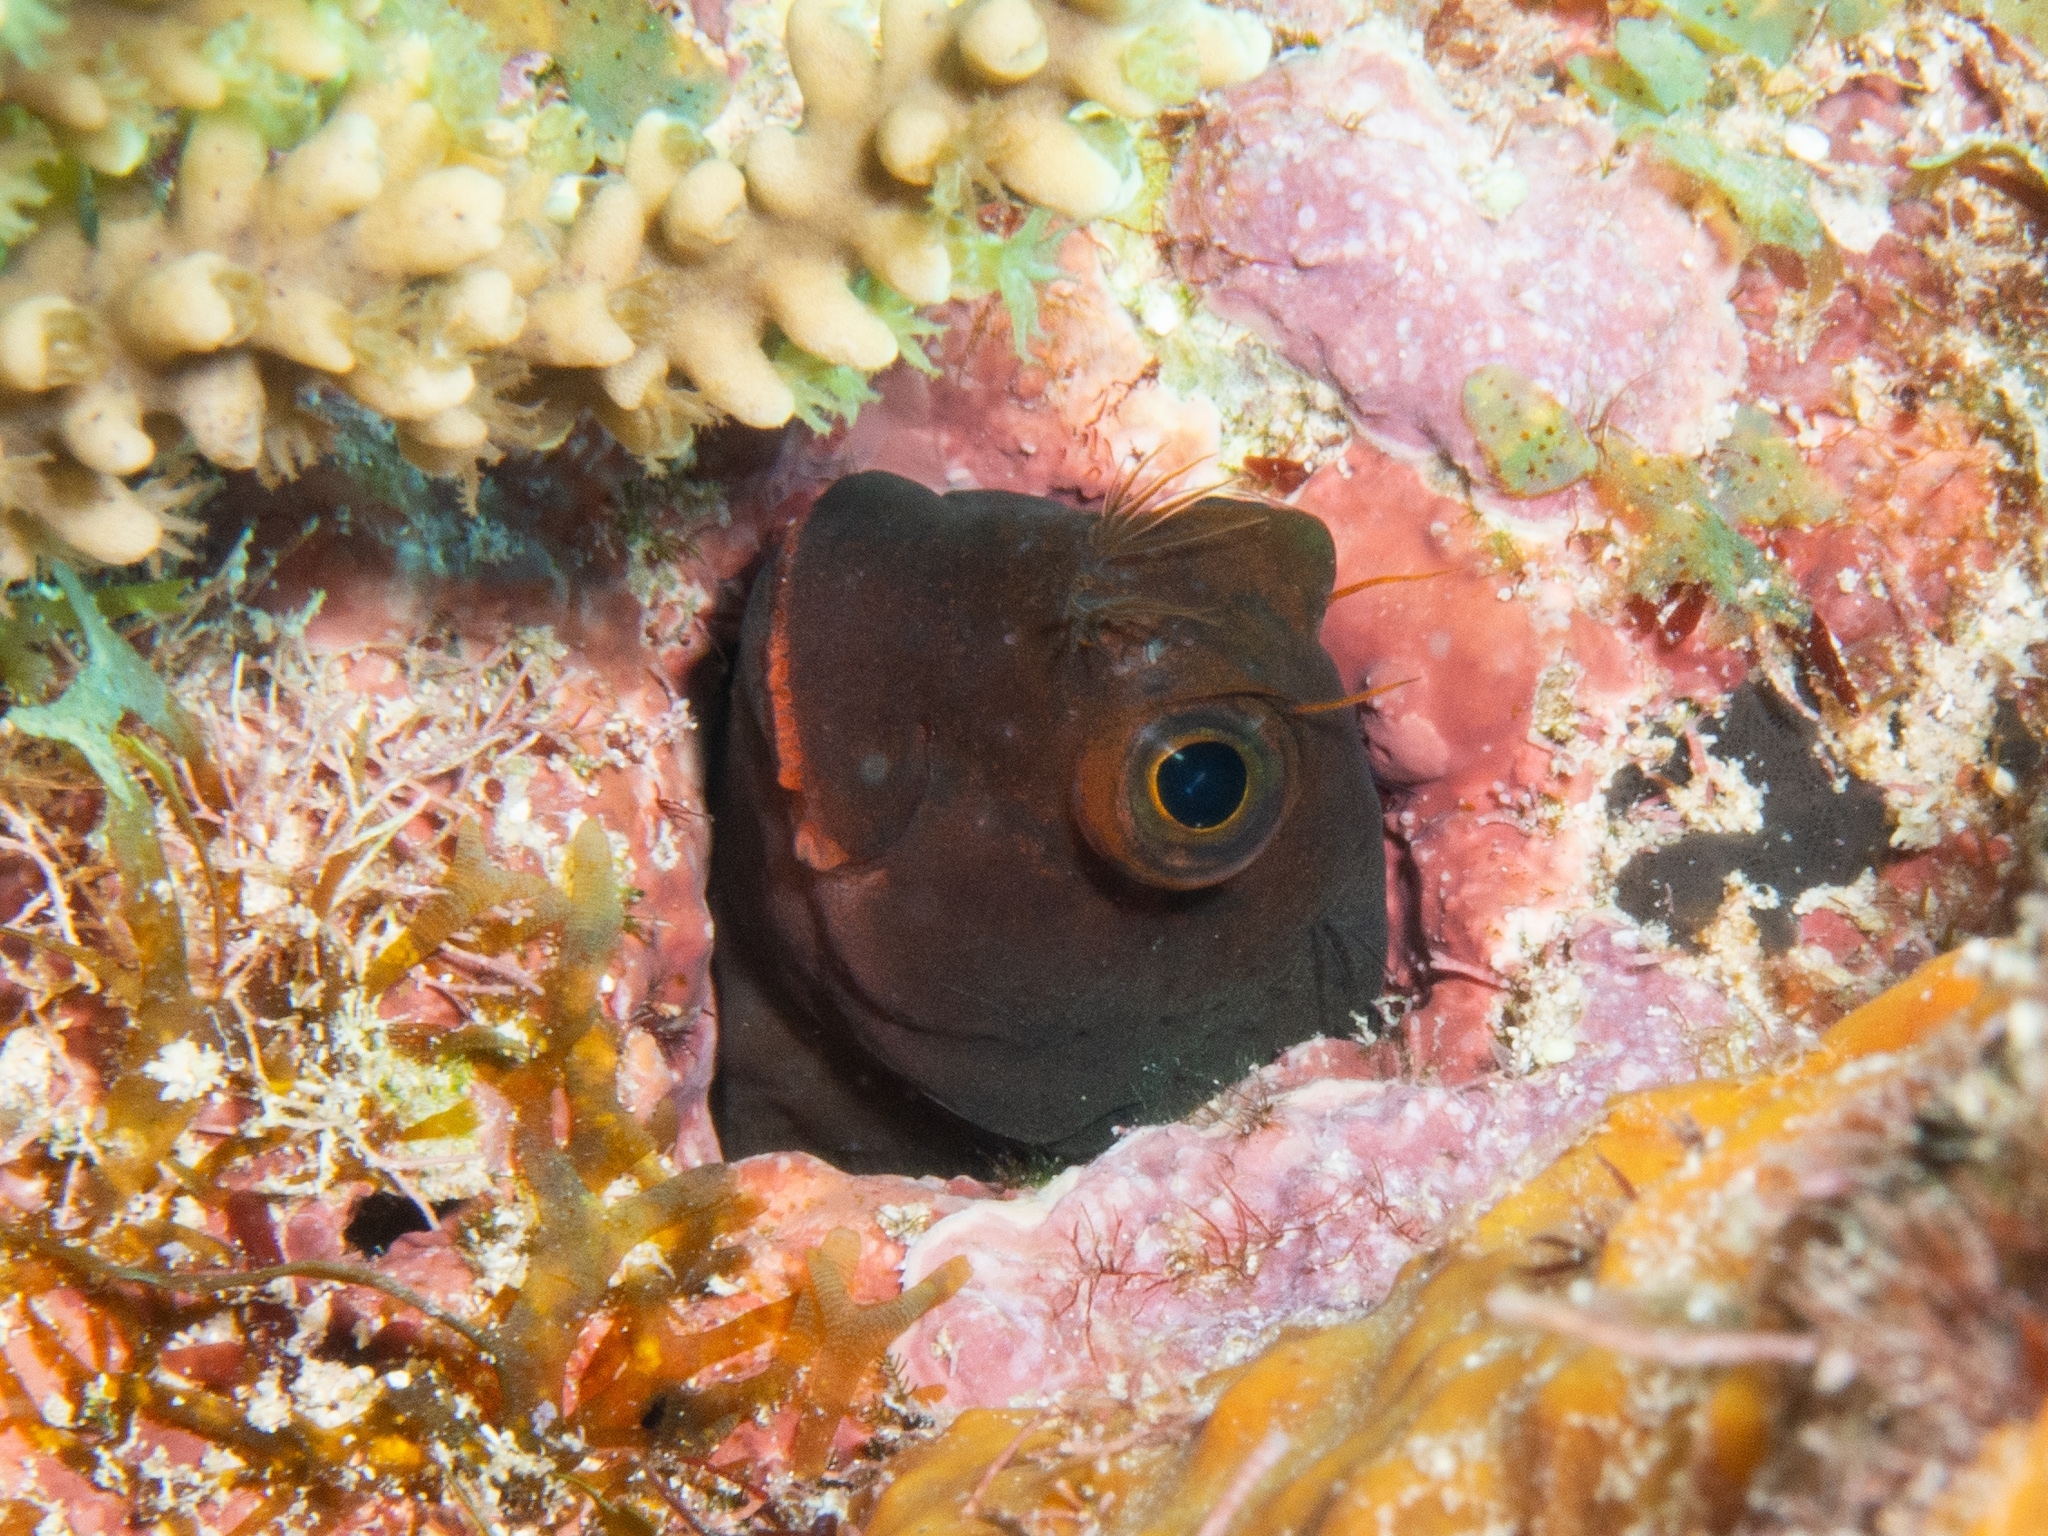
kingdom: Animalia
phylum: Chordata
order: Perciformes
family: Blenniidae
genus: Ophioblennius
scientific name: Ophioblennius macclurei
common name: Redlip blenny
